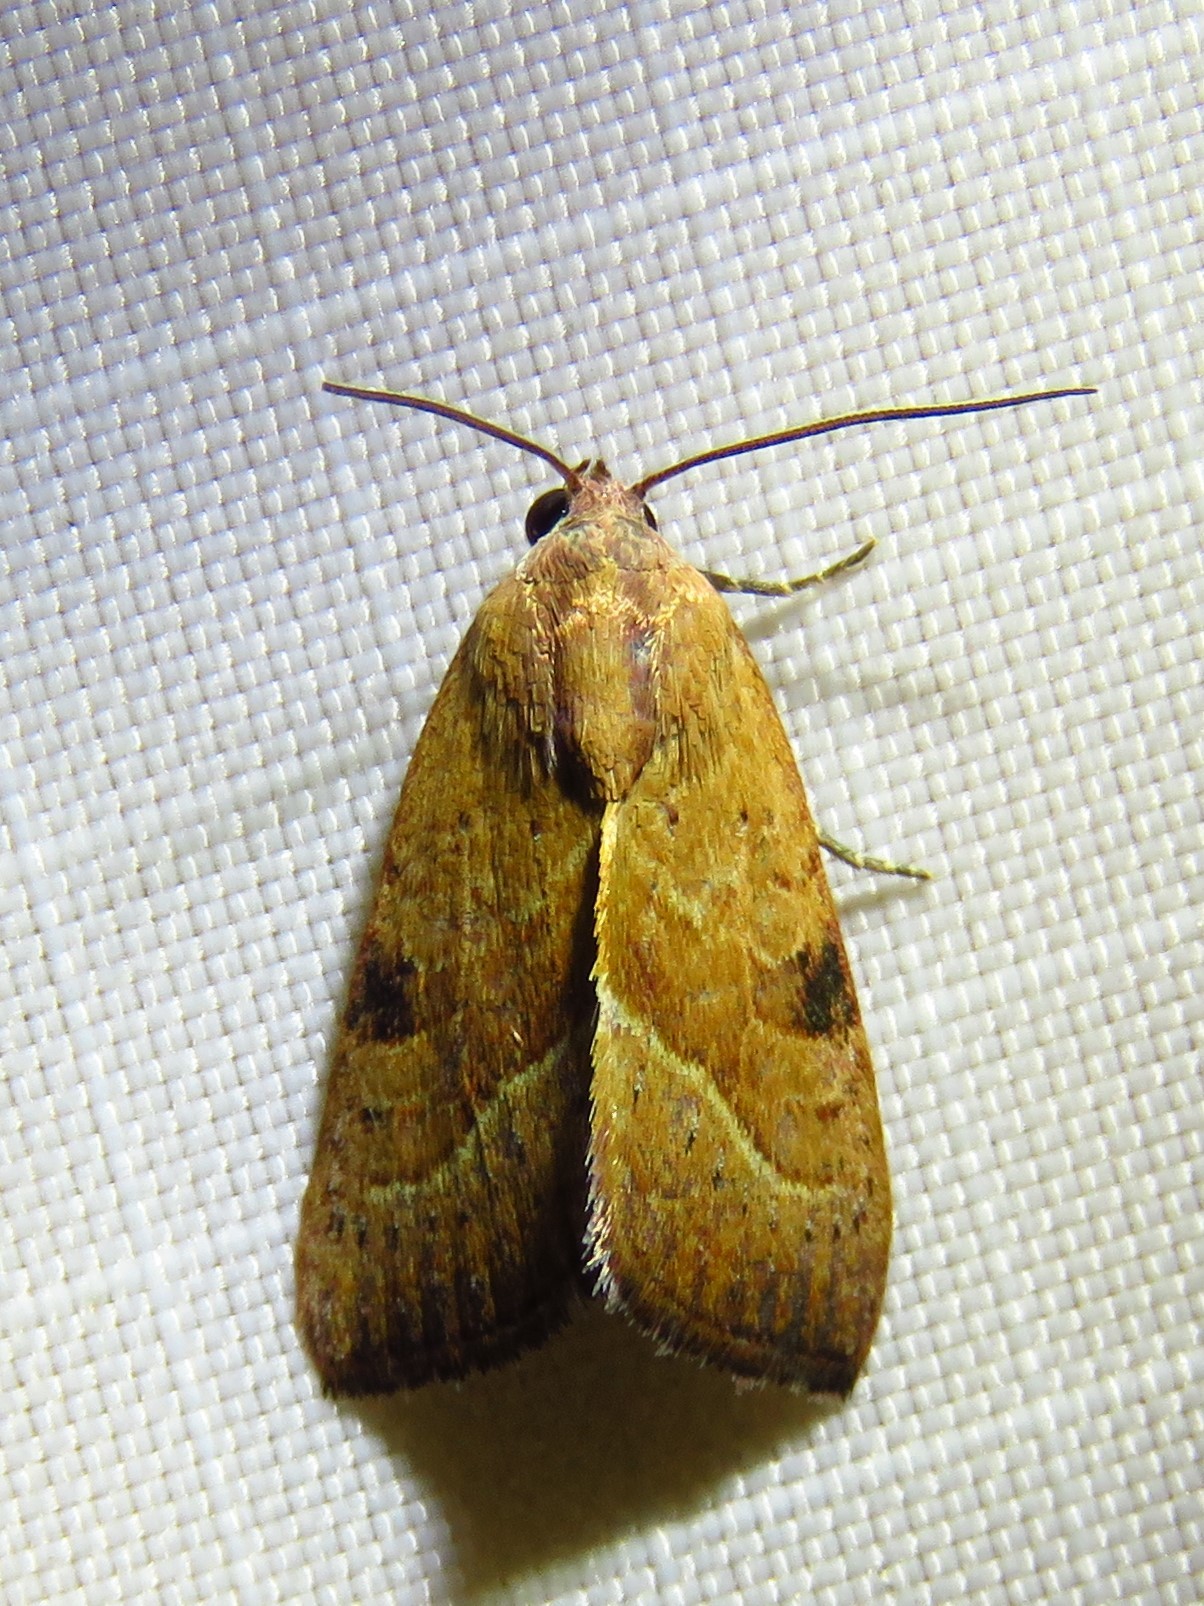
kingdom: Animalia
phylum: Arthropoda
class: Insecta
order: Lepidoptera
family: Noctuidae
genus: Galgula
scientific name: Galgula partita
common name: Wedgeling
